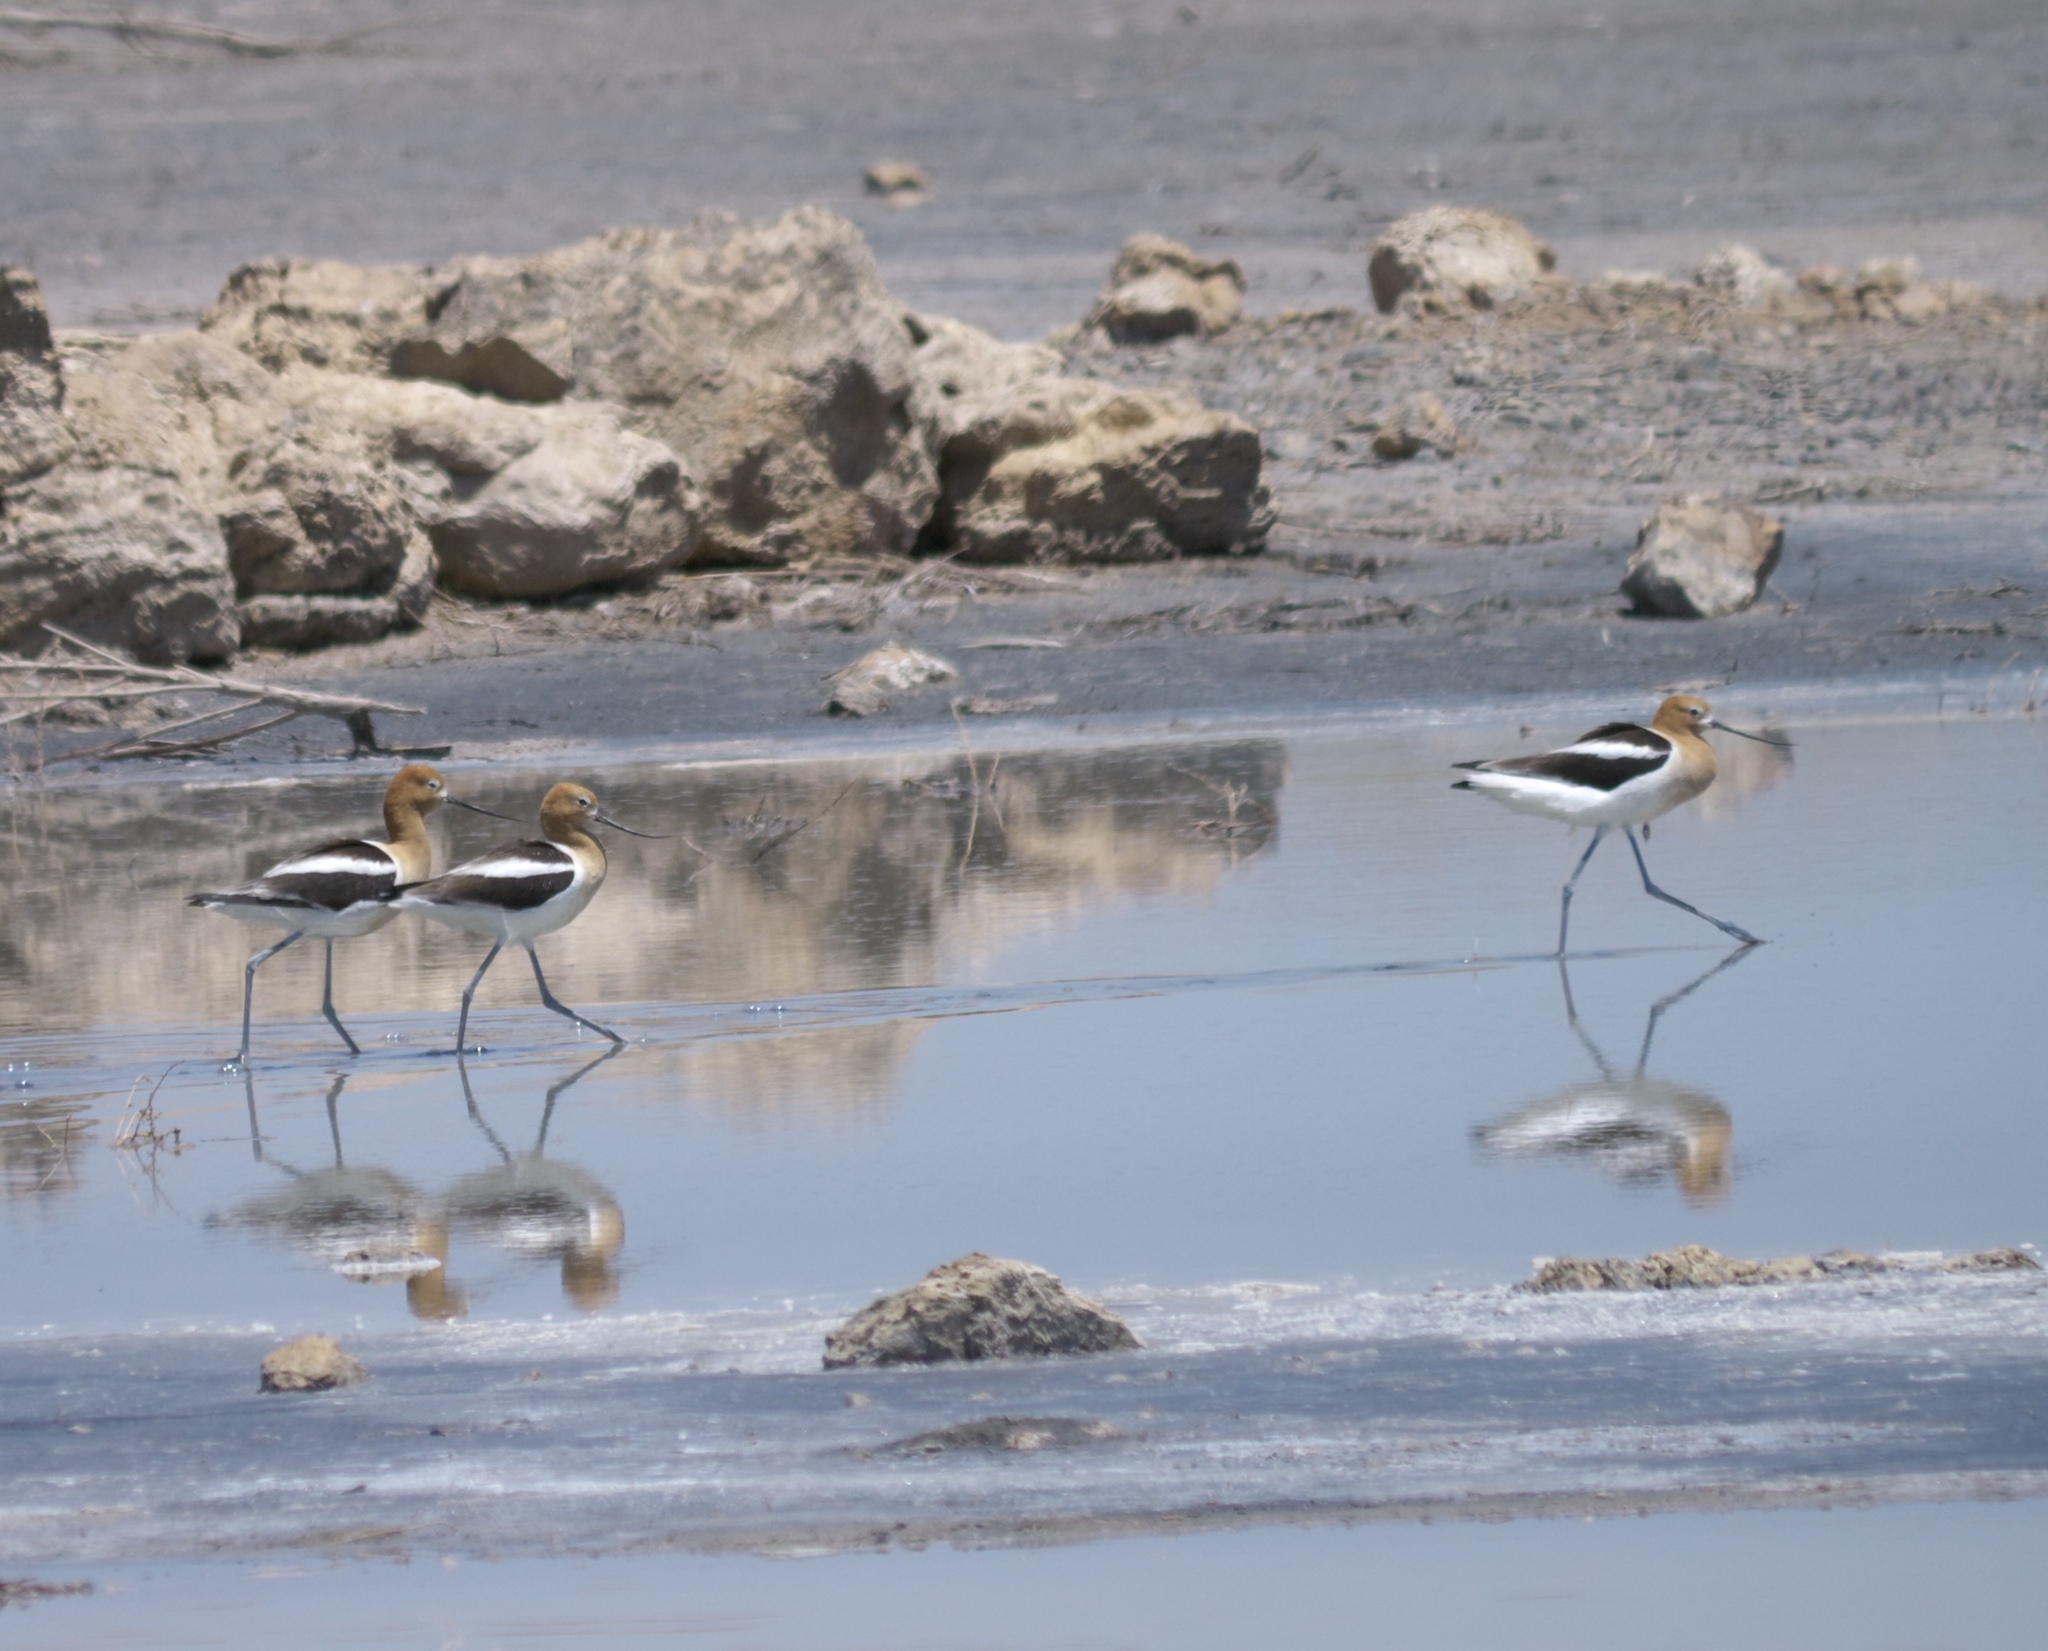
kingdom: Animalia
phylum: Chordata
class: Aves
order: Charadriiformes
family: Recurvirostridae
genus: Recurvirostra
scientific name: Recurvirostra americana
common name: American avocet
